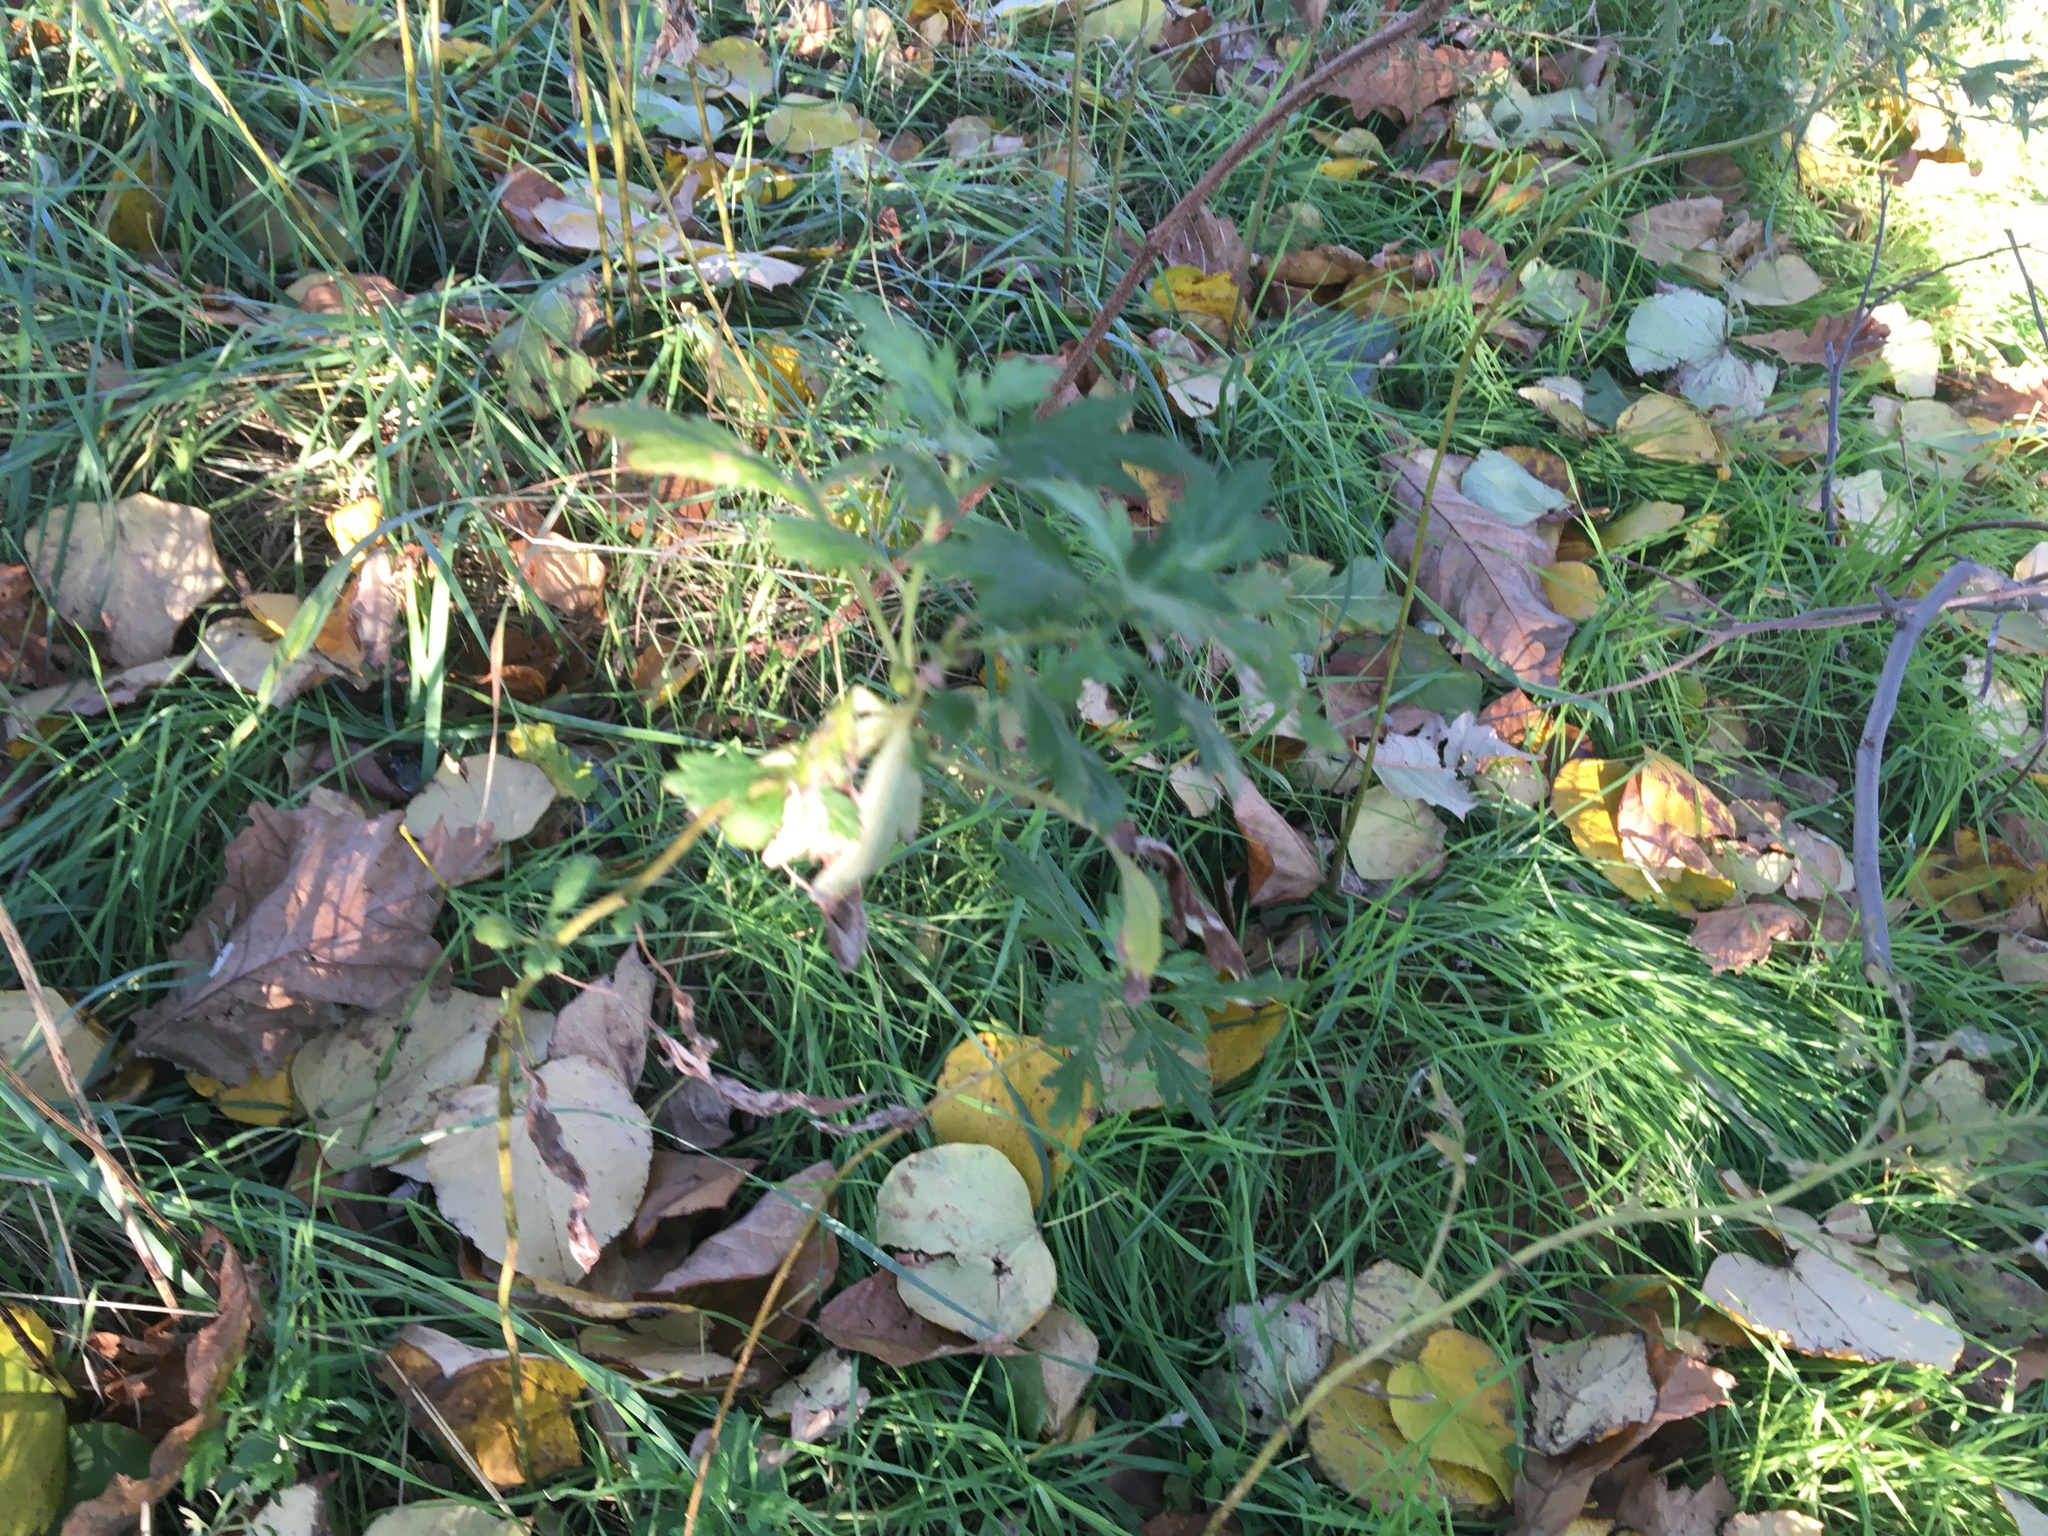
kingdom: Plantae
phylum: Tracheophyta
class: Magnoliopsida
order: Asterales
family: Asteraceae
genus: Artemisia
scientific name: Artemisia vulgaris
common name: Mugwort
